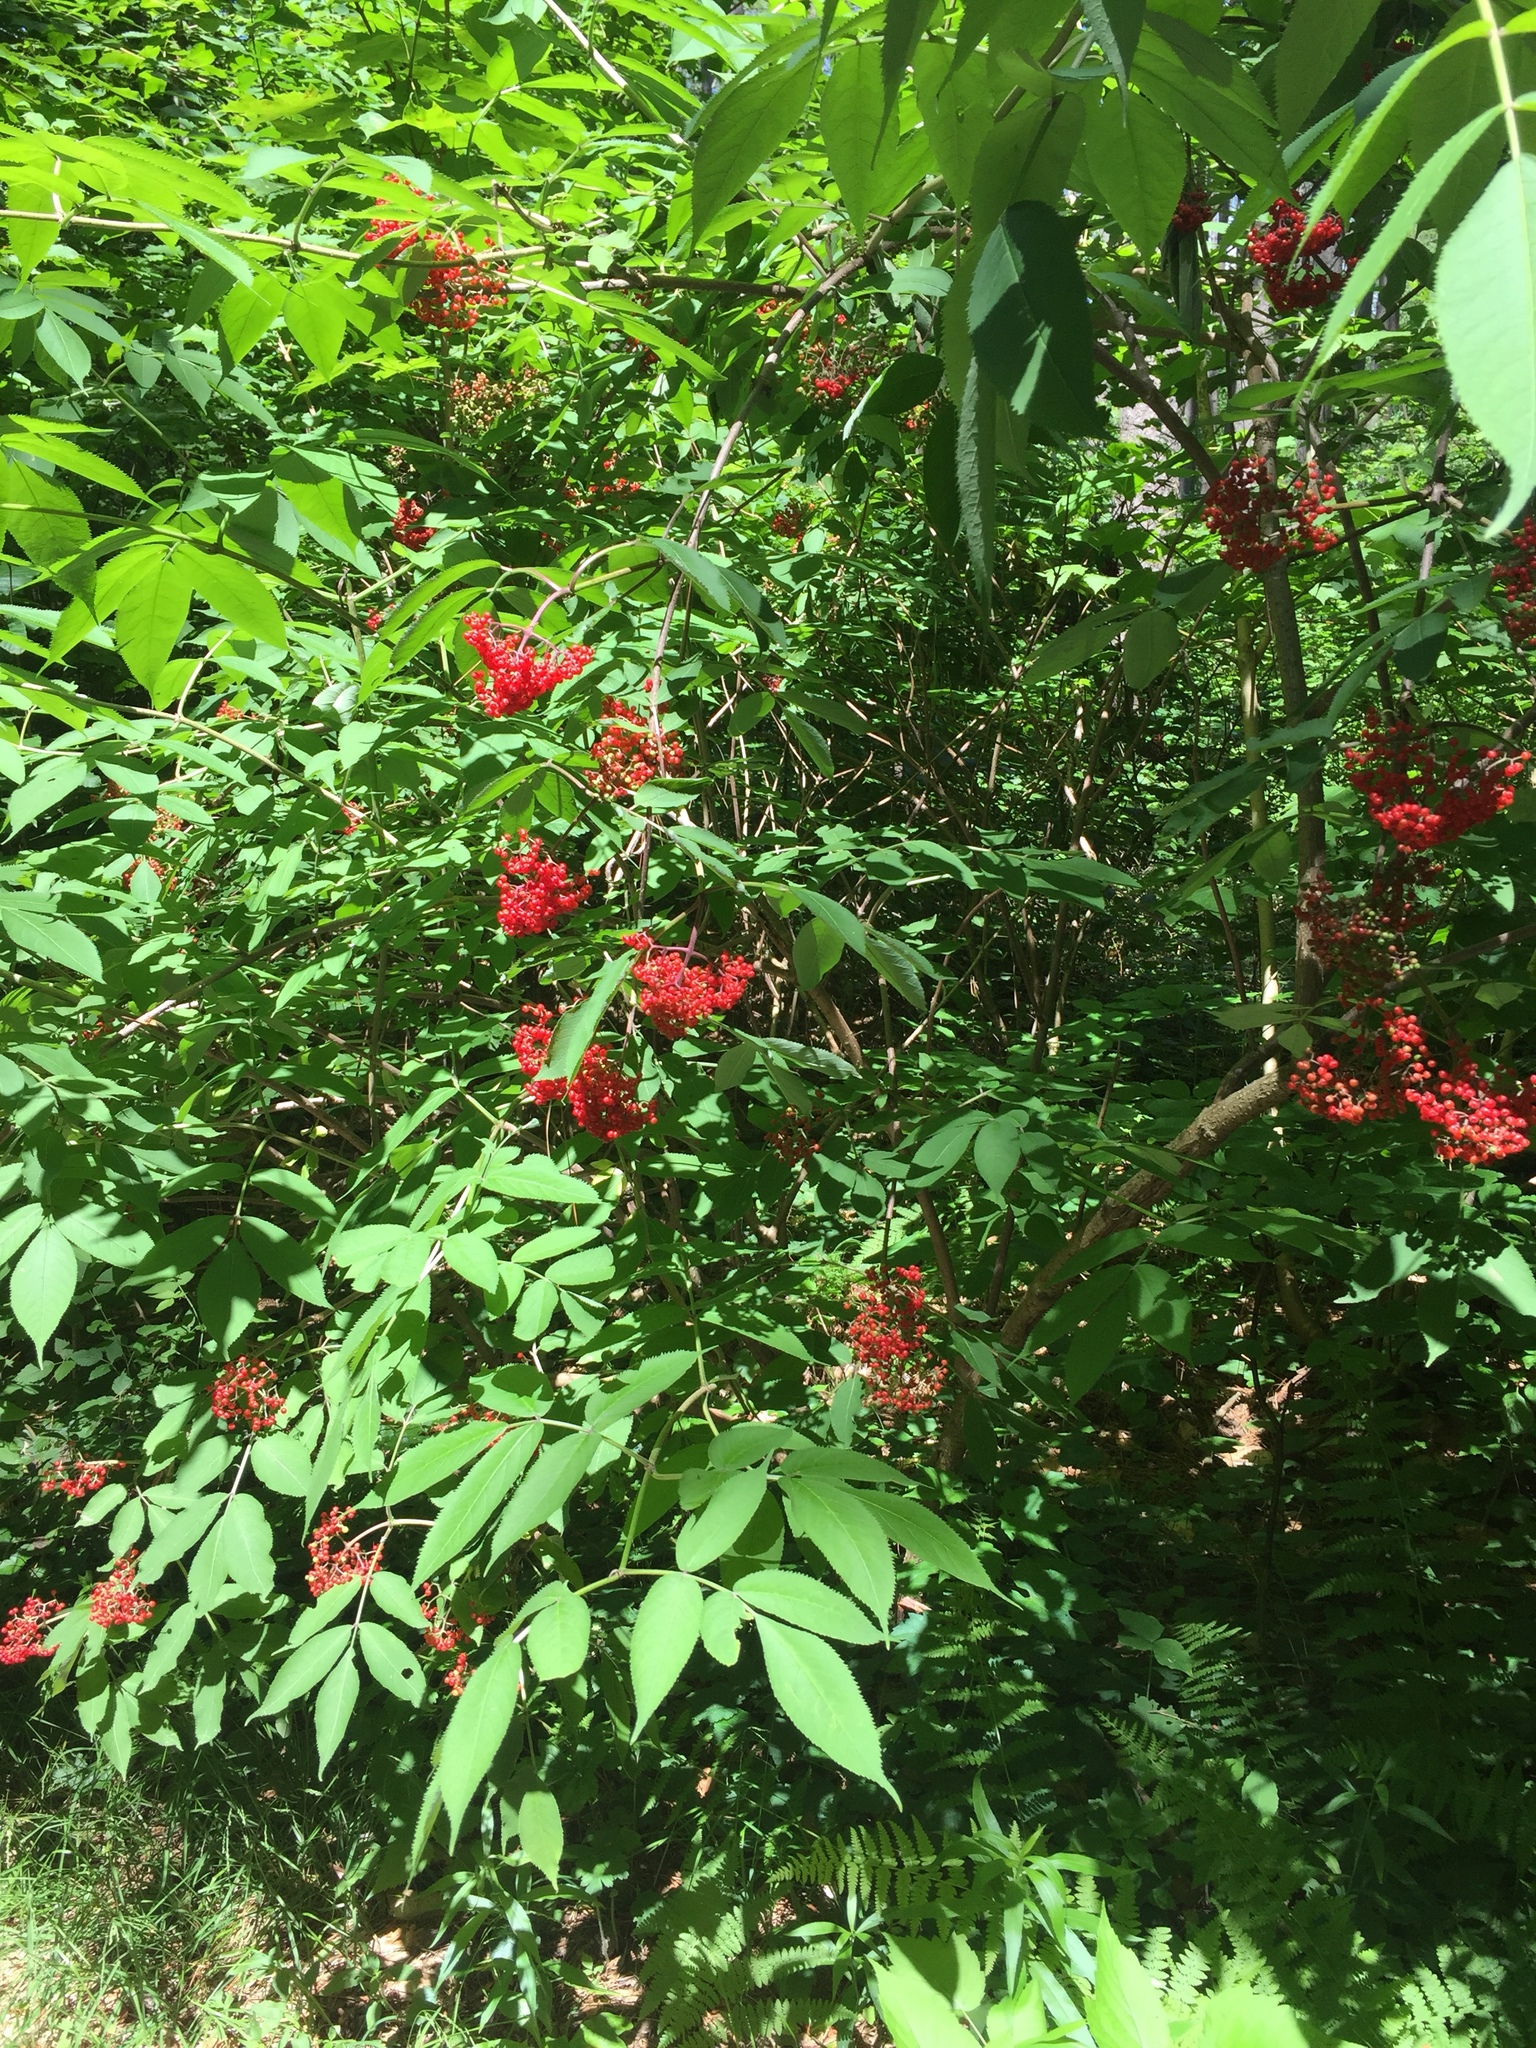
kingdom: Plantae
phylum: Tracheophyta
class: Magnoliopsida
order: Dipsacales
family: Viburnaceae
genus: Sambucus
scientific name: Sambucus racemosa
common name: Red-berried elder
